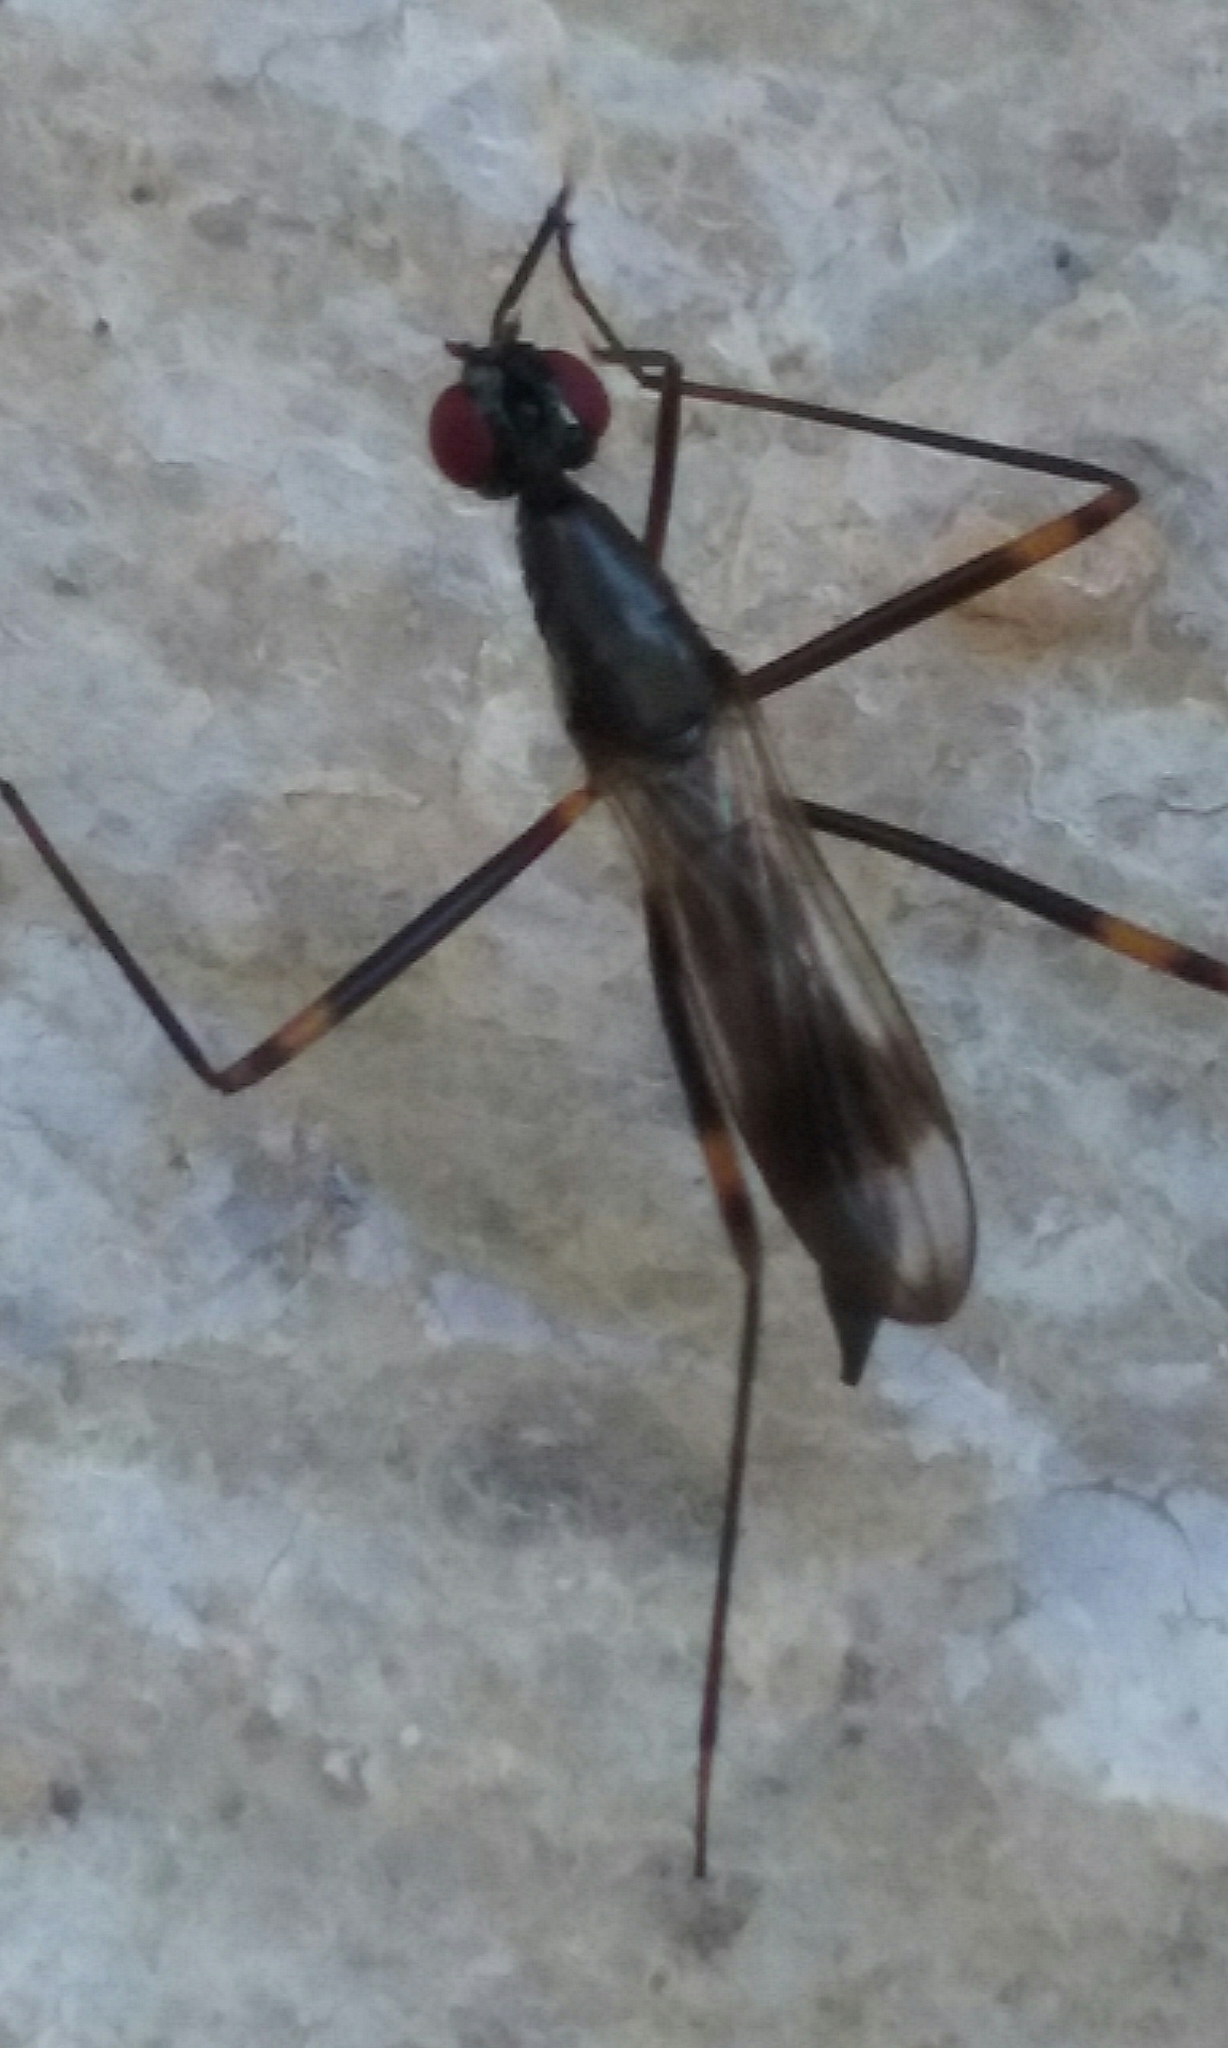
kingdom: Animalia
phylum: Arthropoda
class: Insecta
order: Diptera
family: Micropezidae
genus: Rainieria
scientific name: Rainieria antennaepes
